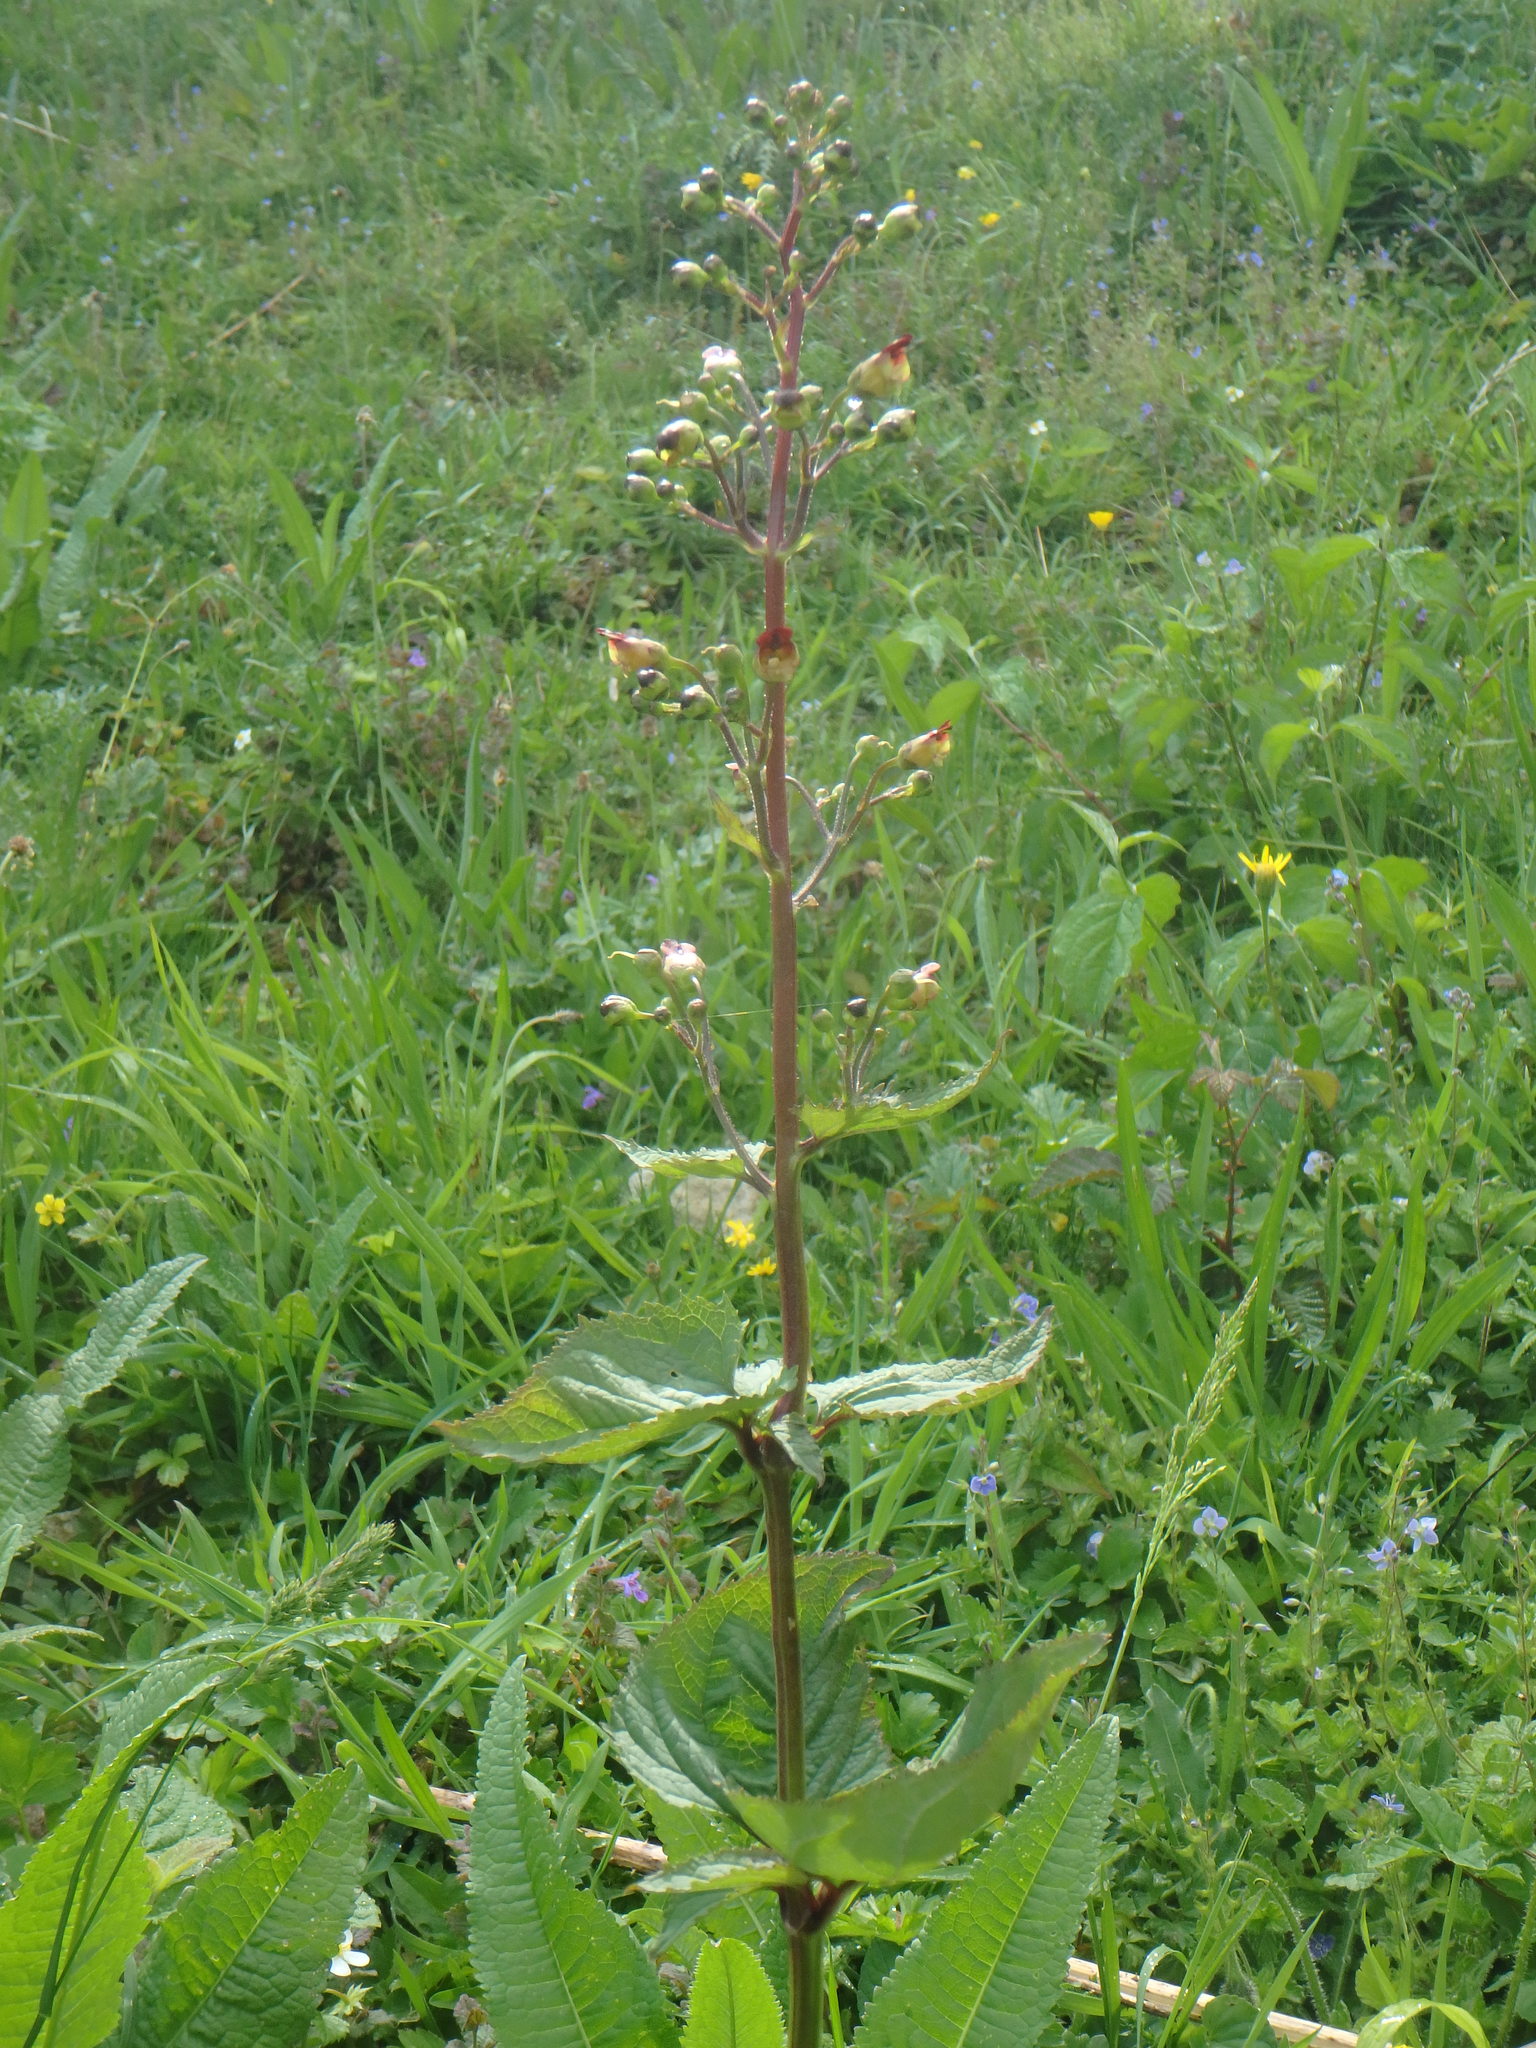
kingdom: Plantae
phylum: Tracheophyta
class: Magnoliopsida
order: Lamiales
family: Scrophulariaceae
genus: Scrophularia
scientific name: Scrophularia nodosa
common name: Common figwort
